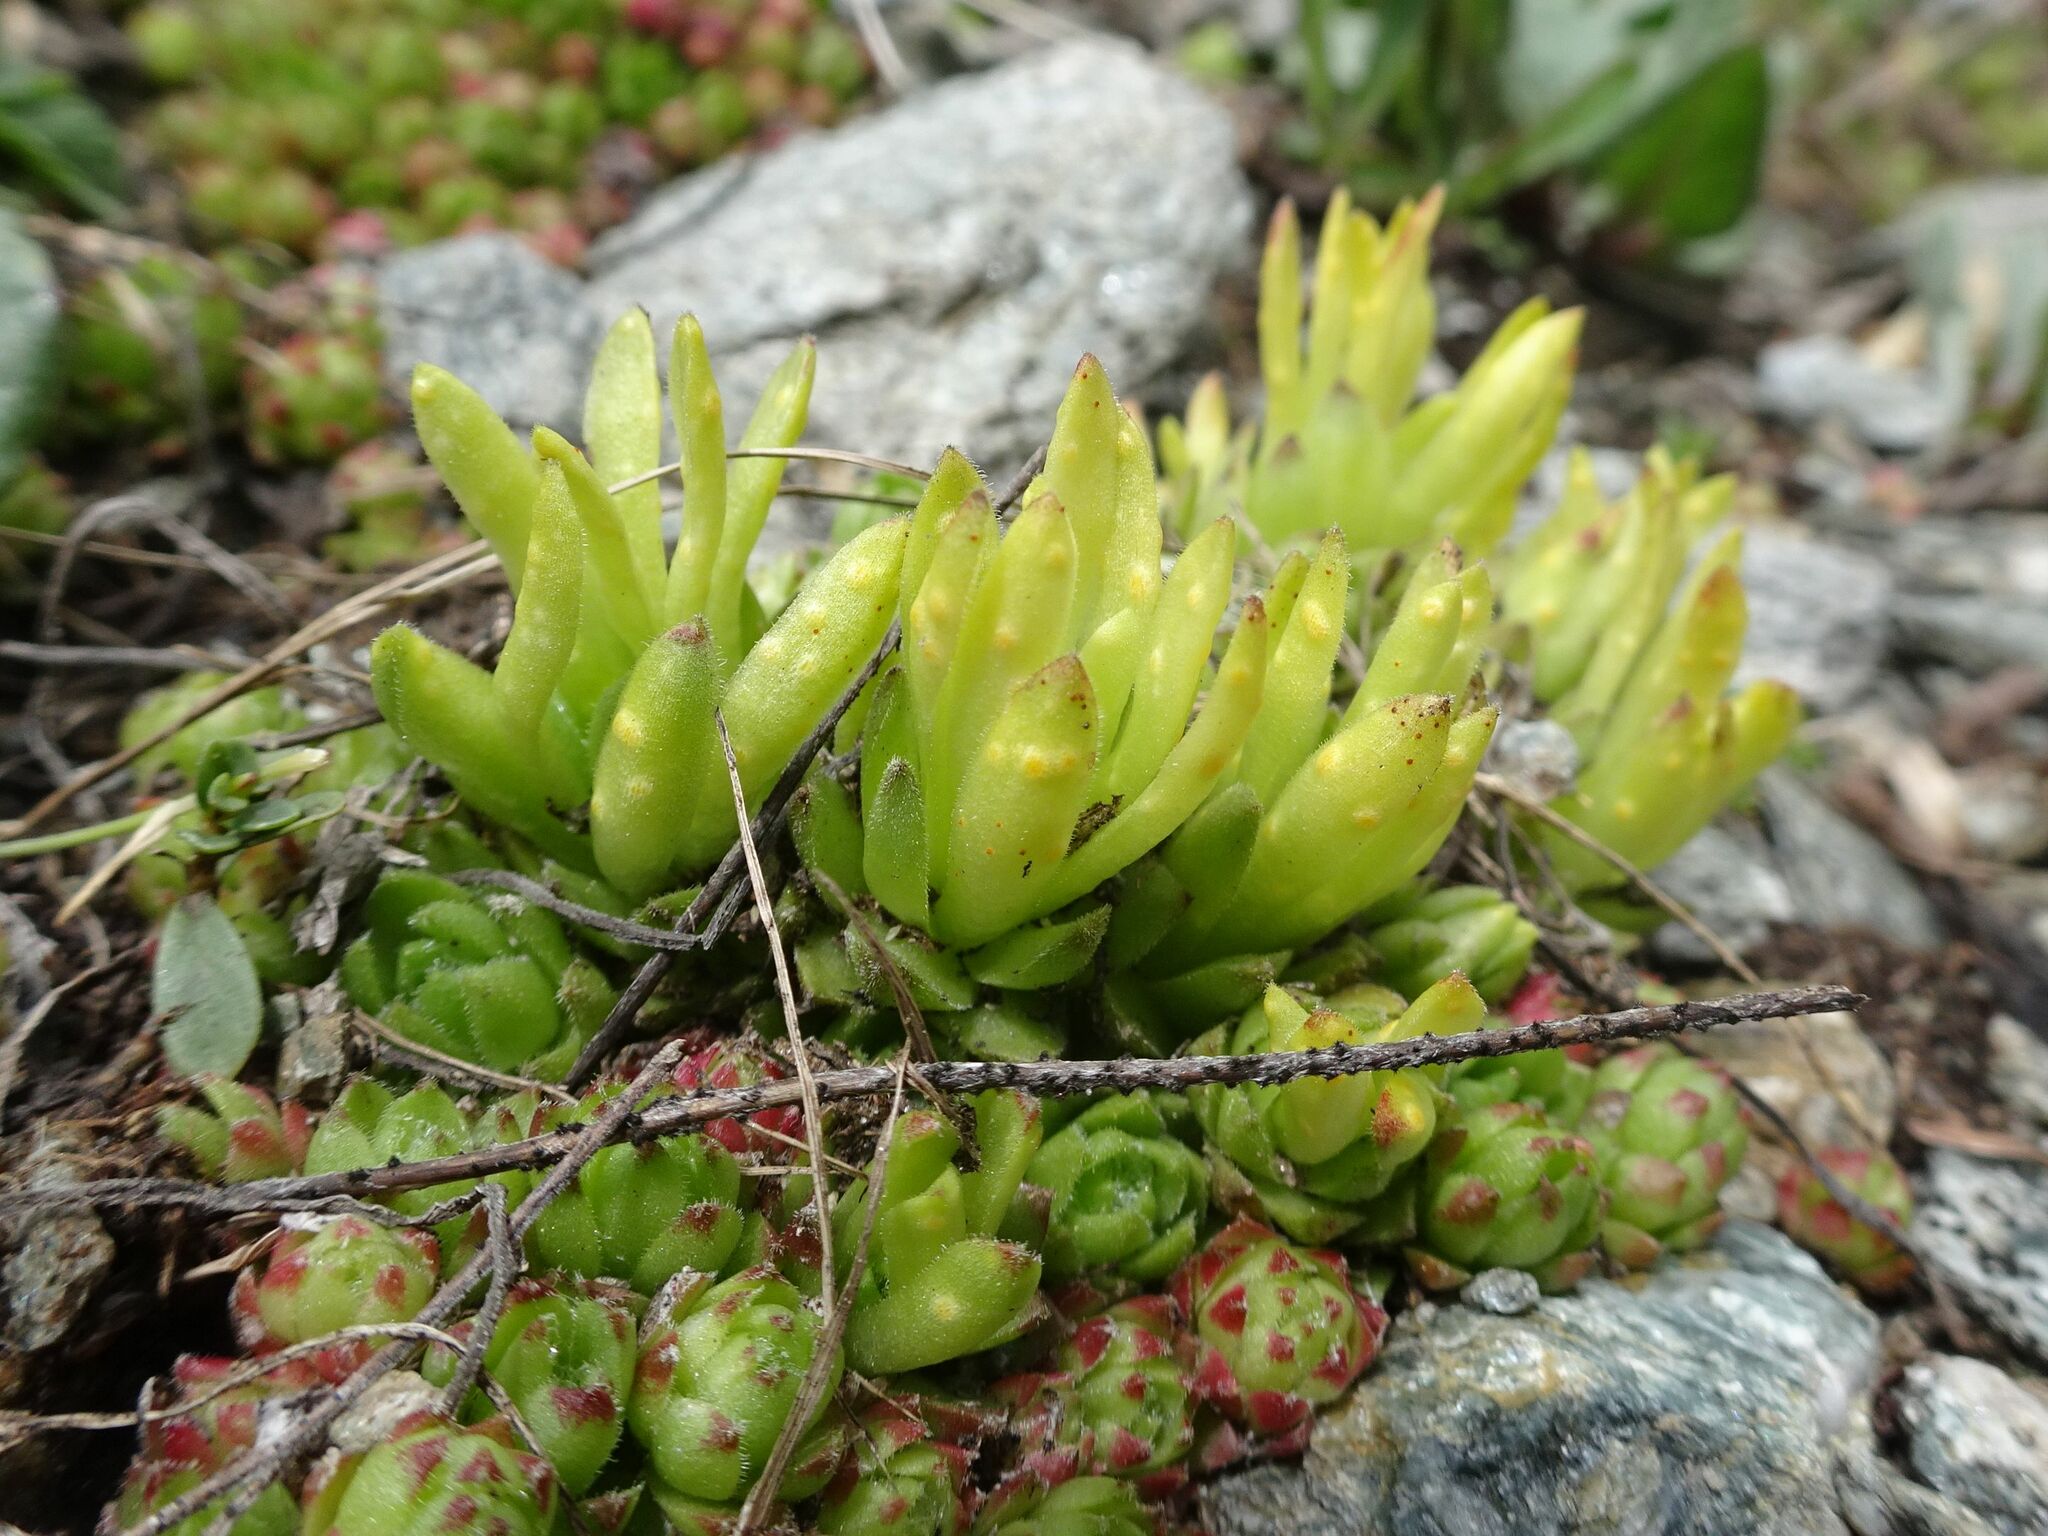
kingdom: Fungi
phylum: Basidiomycota
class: Pucciniomycetes
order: Pucciniales
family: Pucciniaceae
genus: Endophyllum
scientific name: Endophyllum sempervivi
